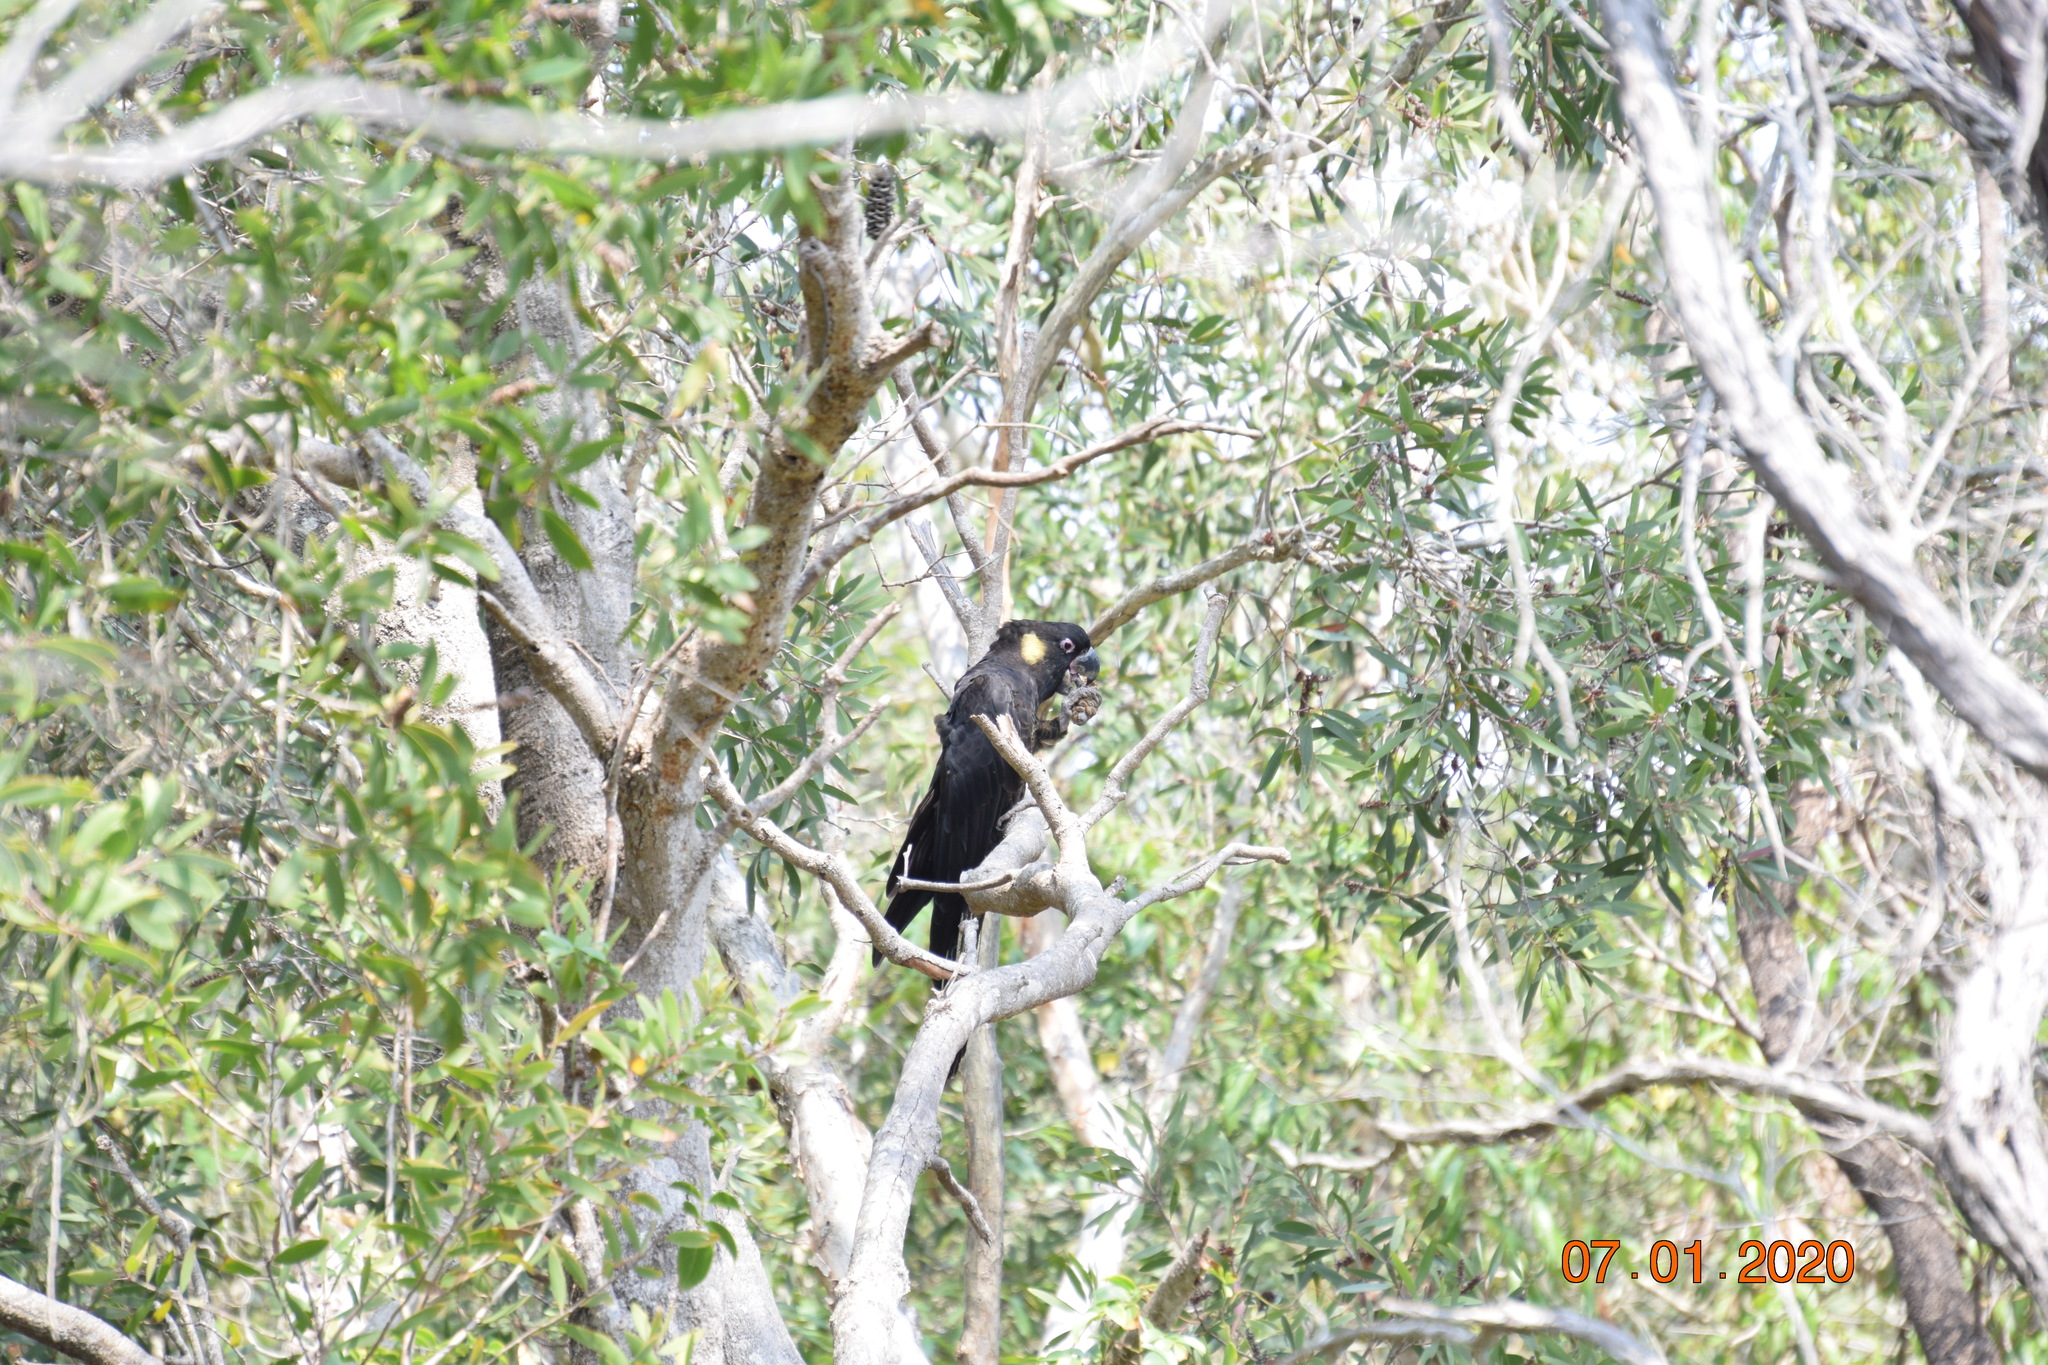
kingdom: Animalia
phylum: Chordata
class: Aves
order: Psittaciformes
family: Cacatuidae
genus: Zanda
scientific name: Zanda funerea
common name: Yellow-tailed black-cockatoo
